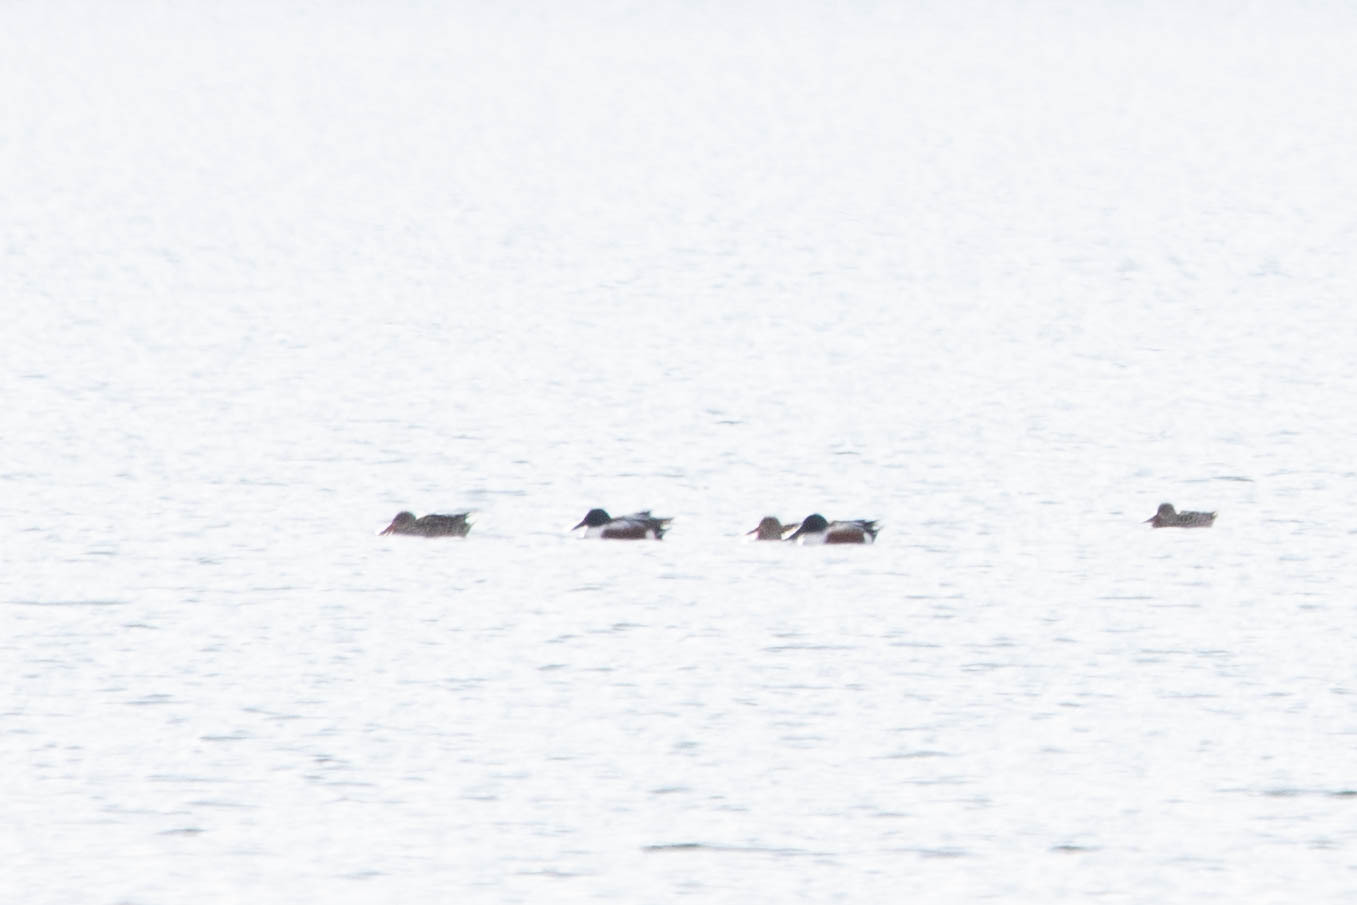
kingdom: Animalia
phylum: Chordata
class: Aves
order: Anseriformes
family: Anatidae
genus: Spatula
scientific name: Spatula clypeata
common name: Northern shoveler
